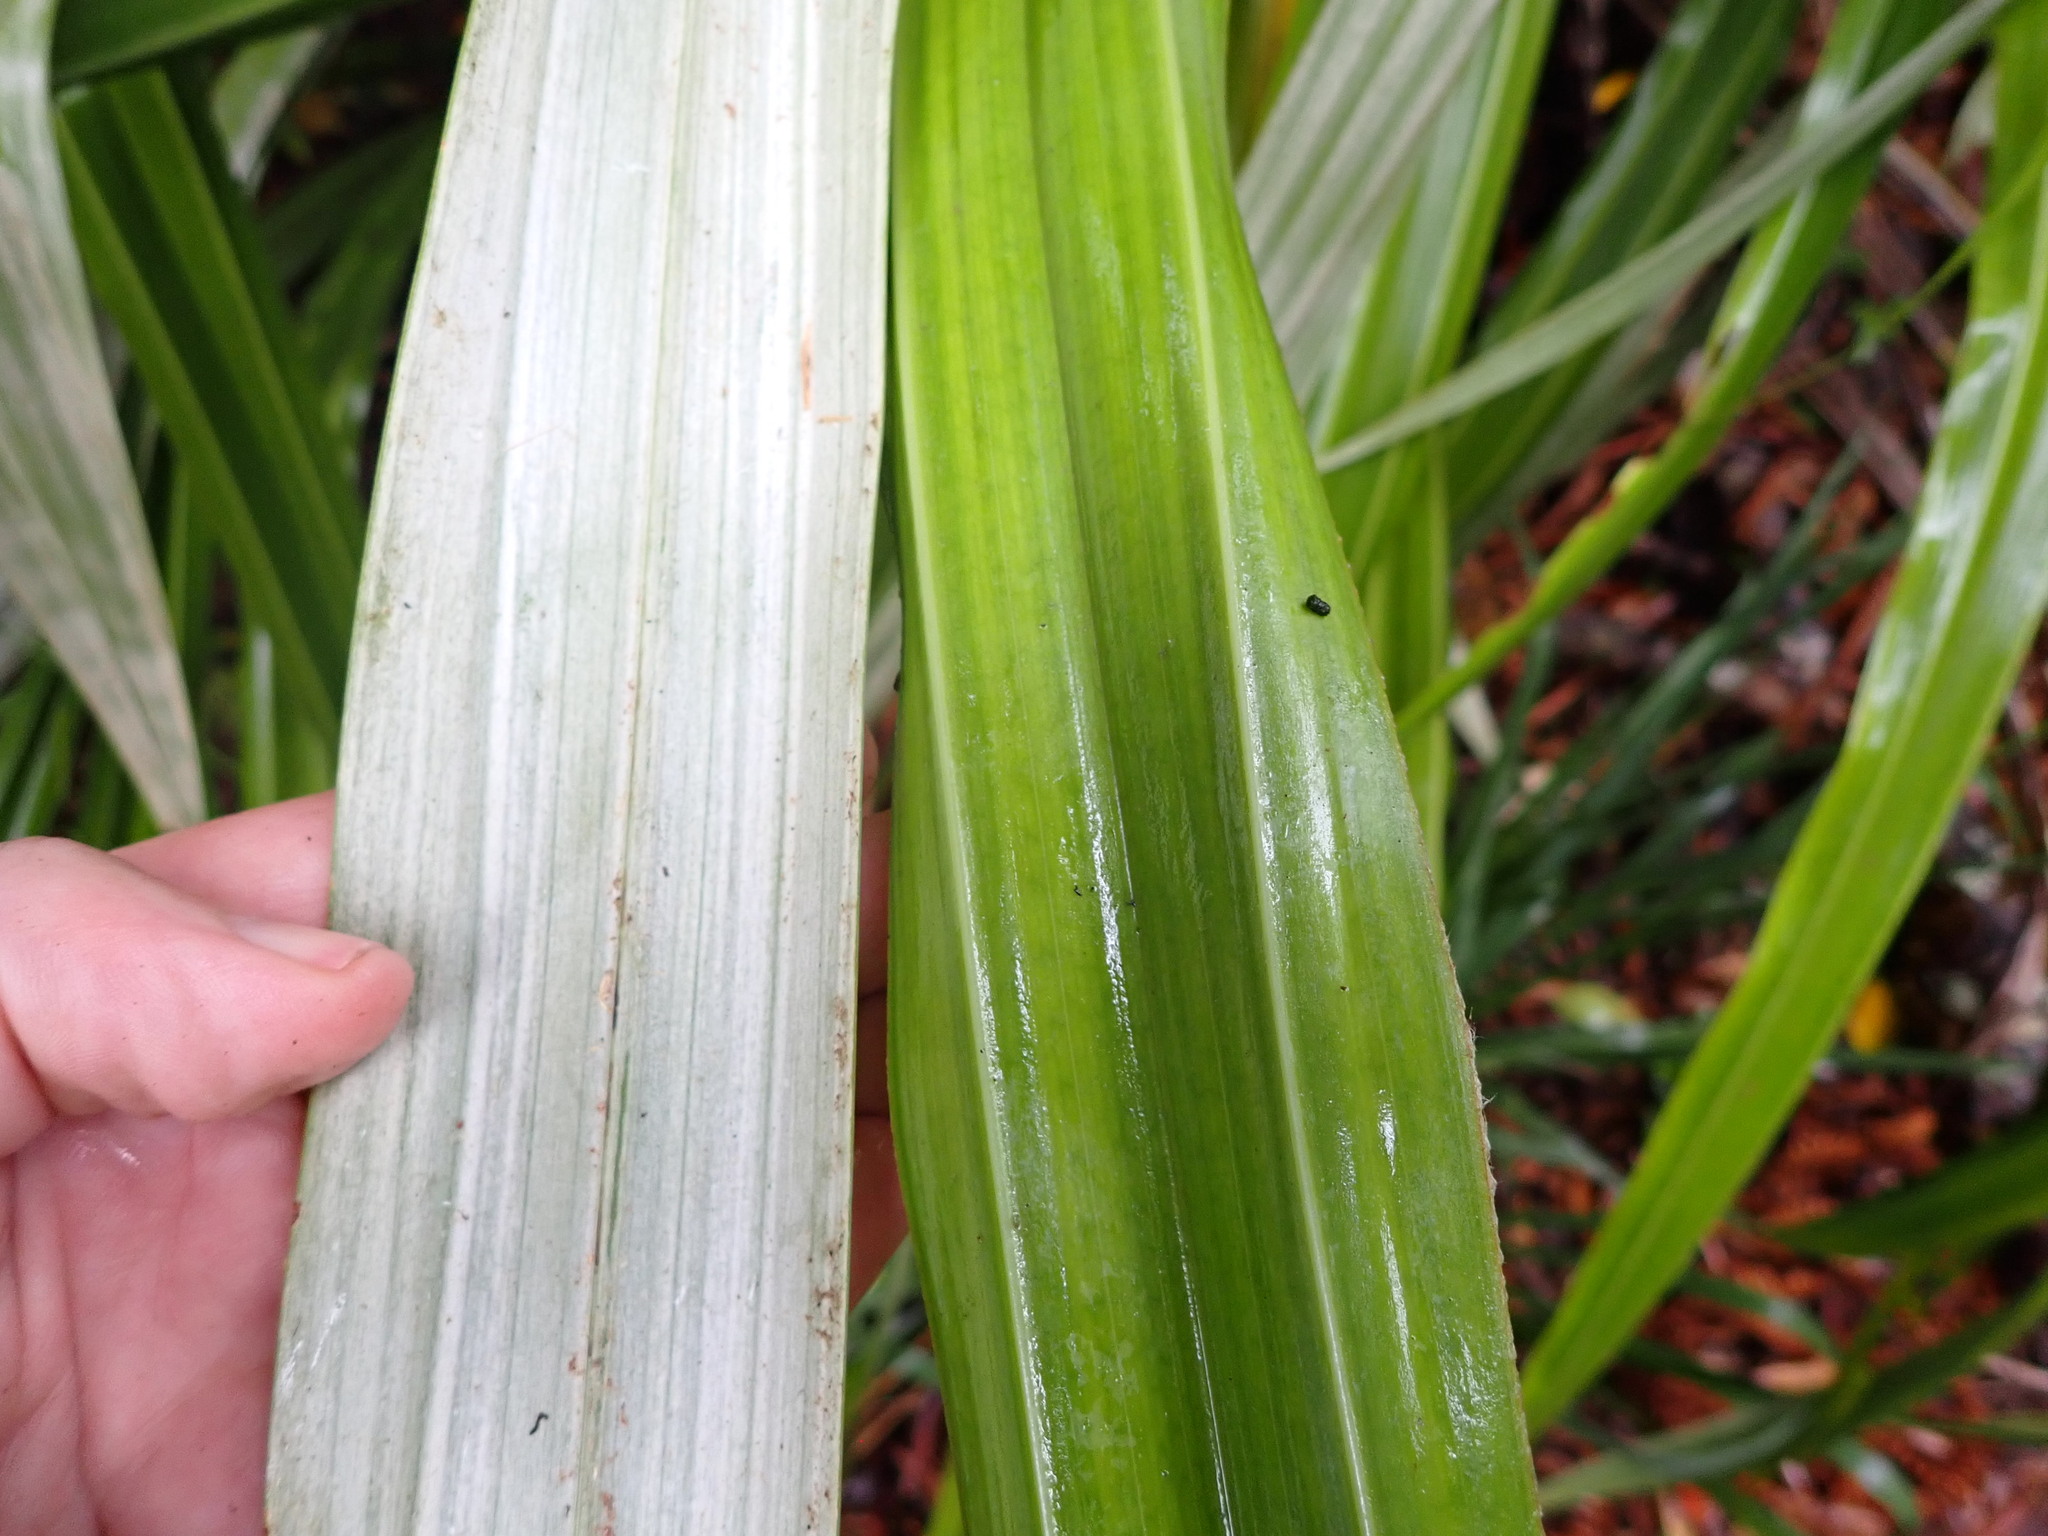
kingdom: Plantae
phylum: Tracheophyta
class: Liliopsida
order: Asparagales
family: Asteliaceae
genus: Astelia
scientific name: Astelia fragrans
